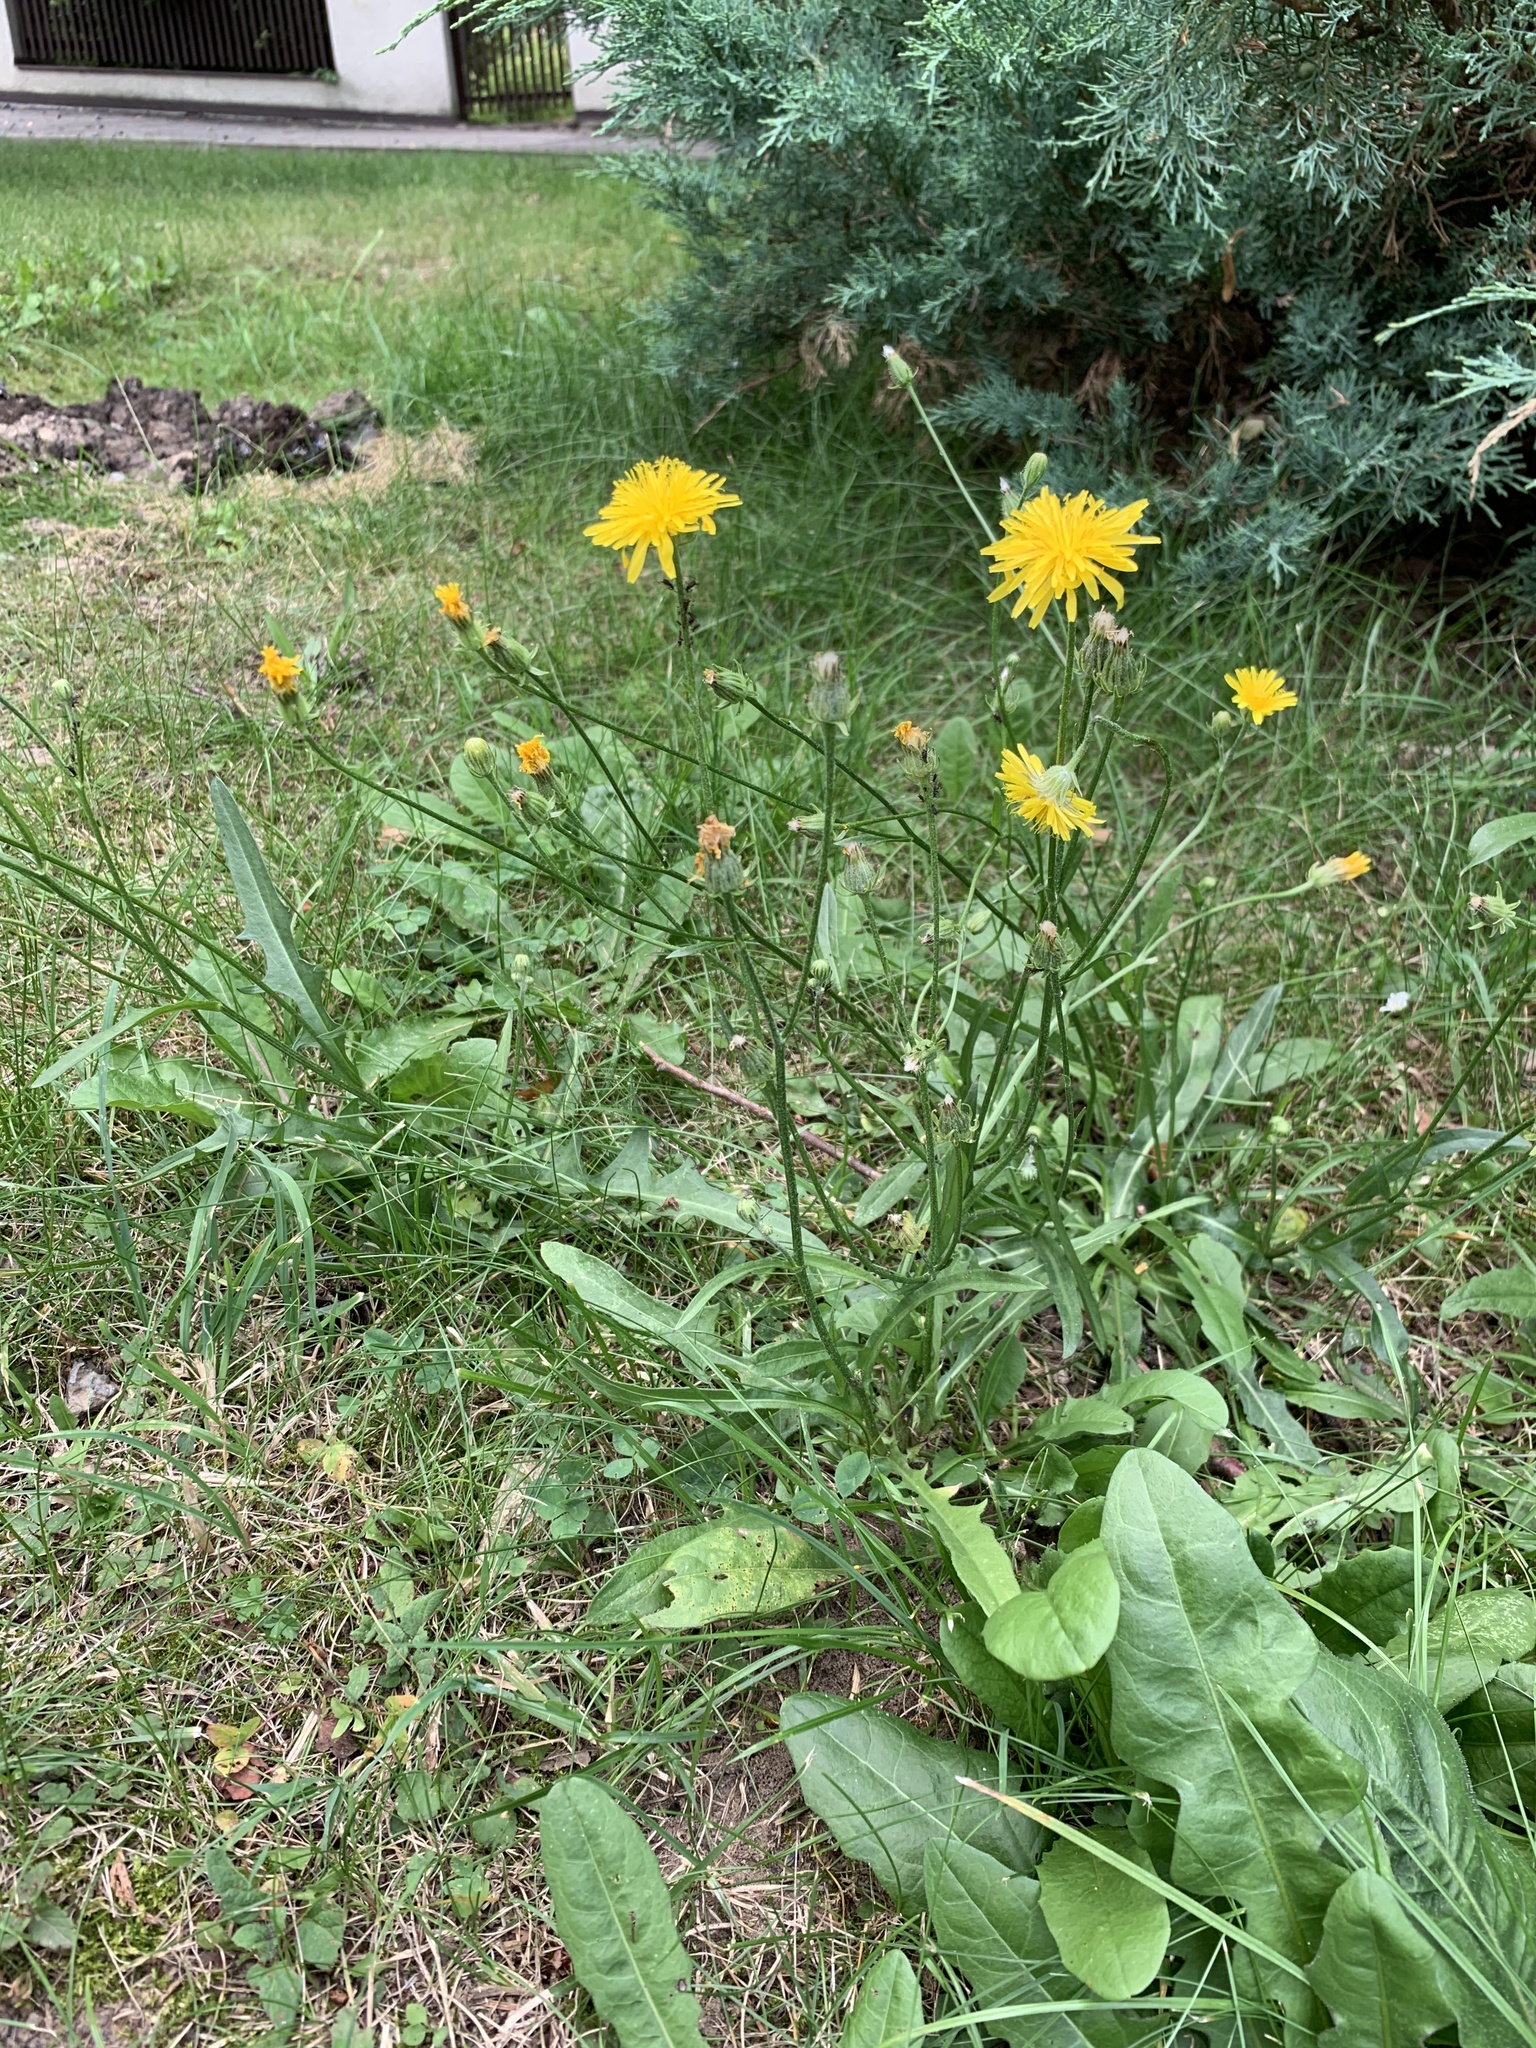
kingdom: Plantae
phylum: Tracheophyta
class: Magnoliopsida
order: Asterales
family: Asteraceae
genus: Crepis
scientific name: Crepis biennis
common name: Rough hawk's-beard
